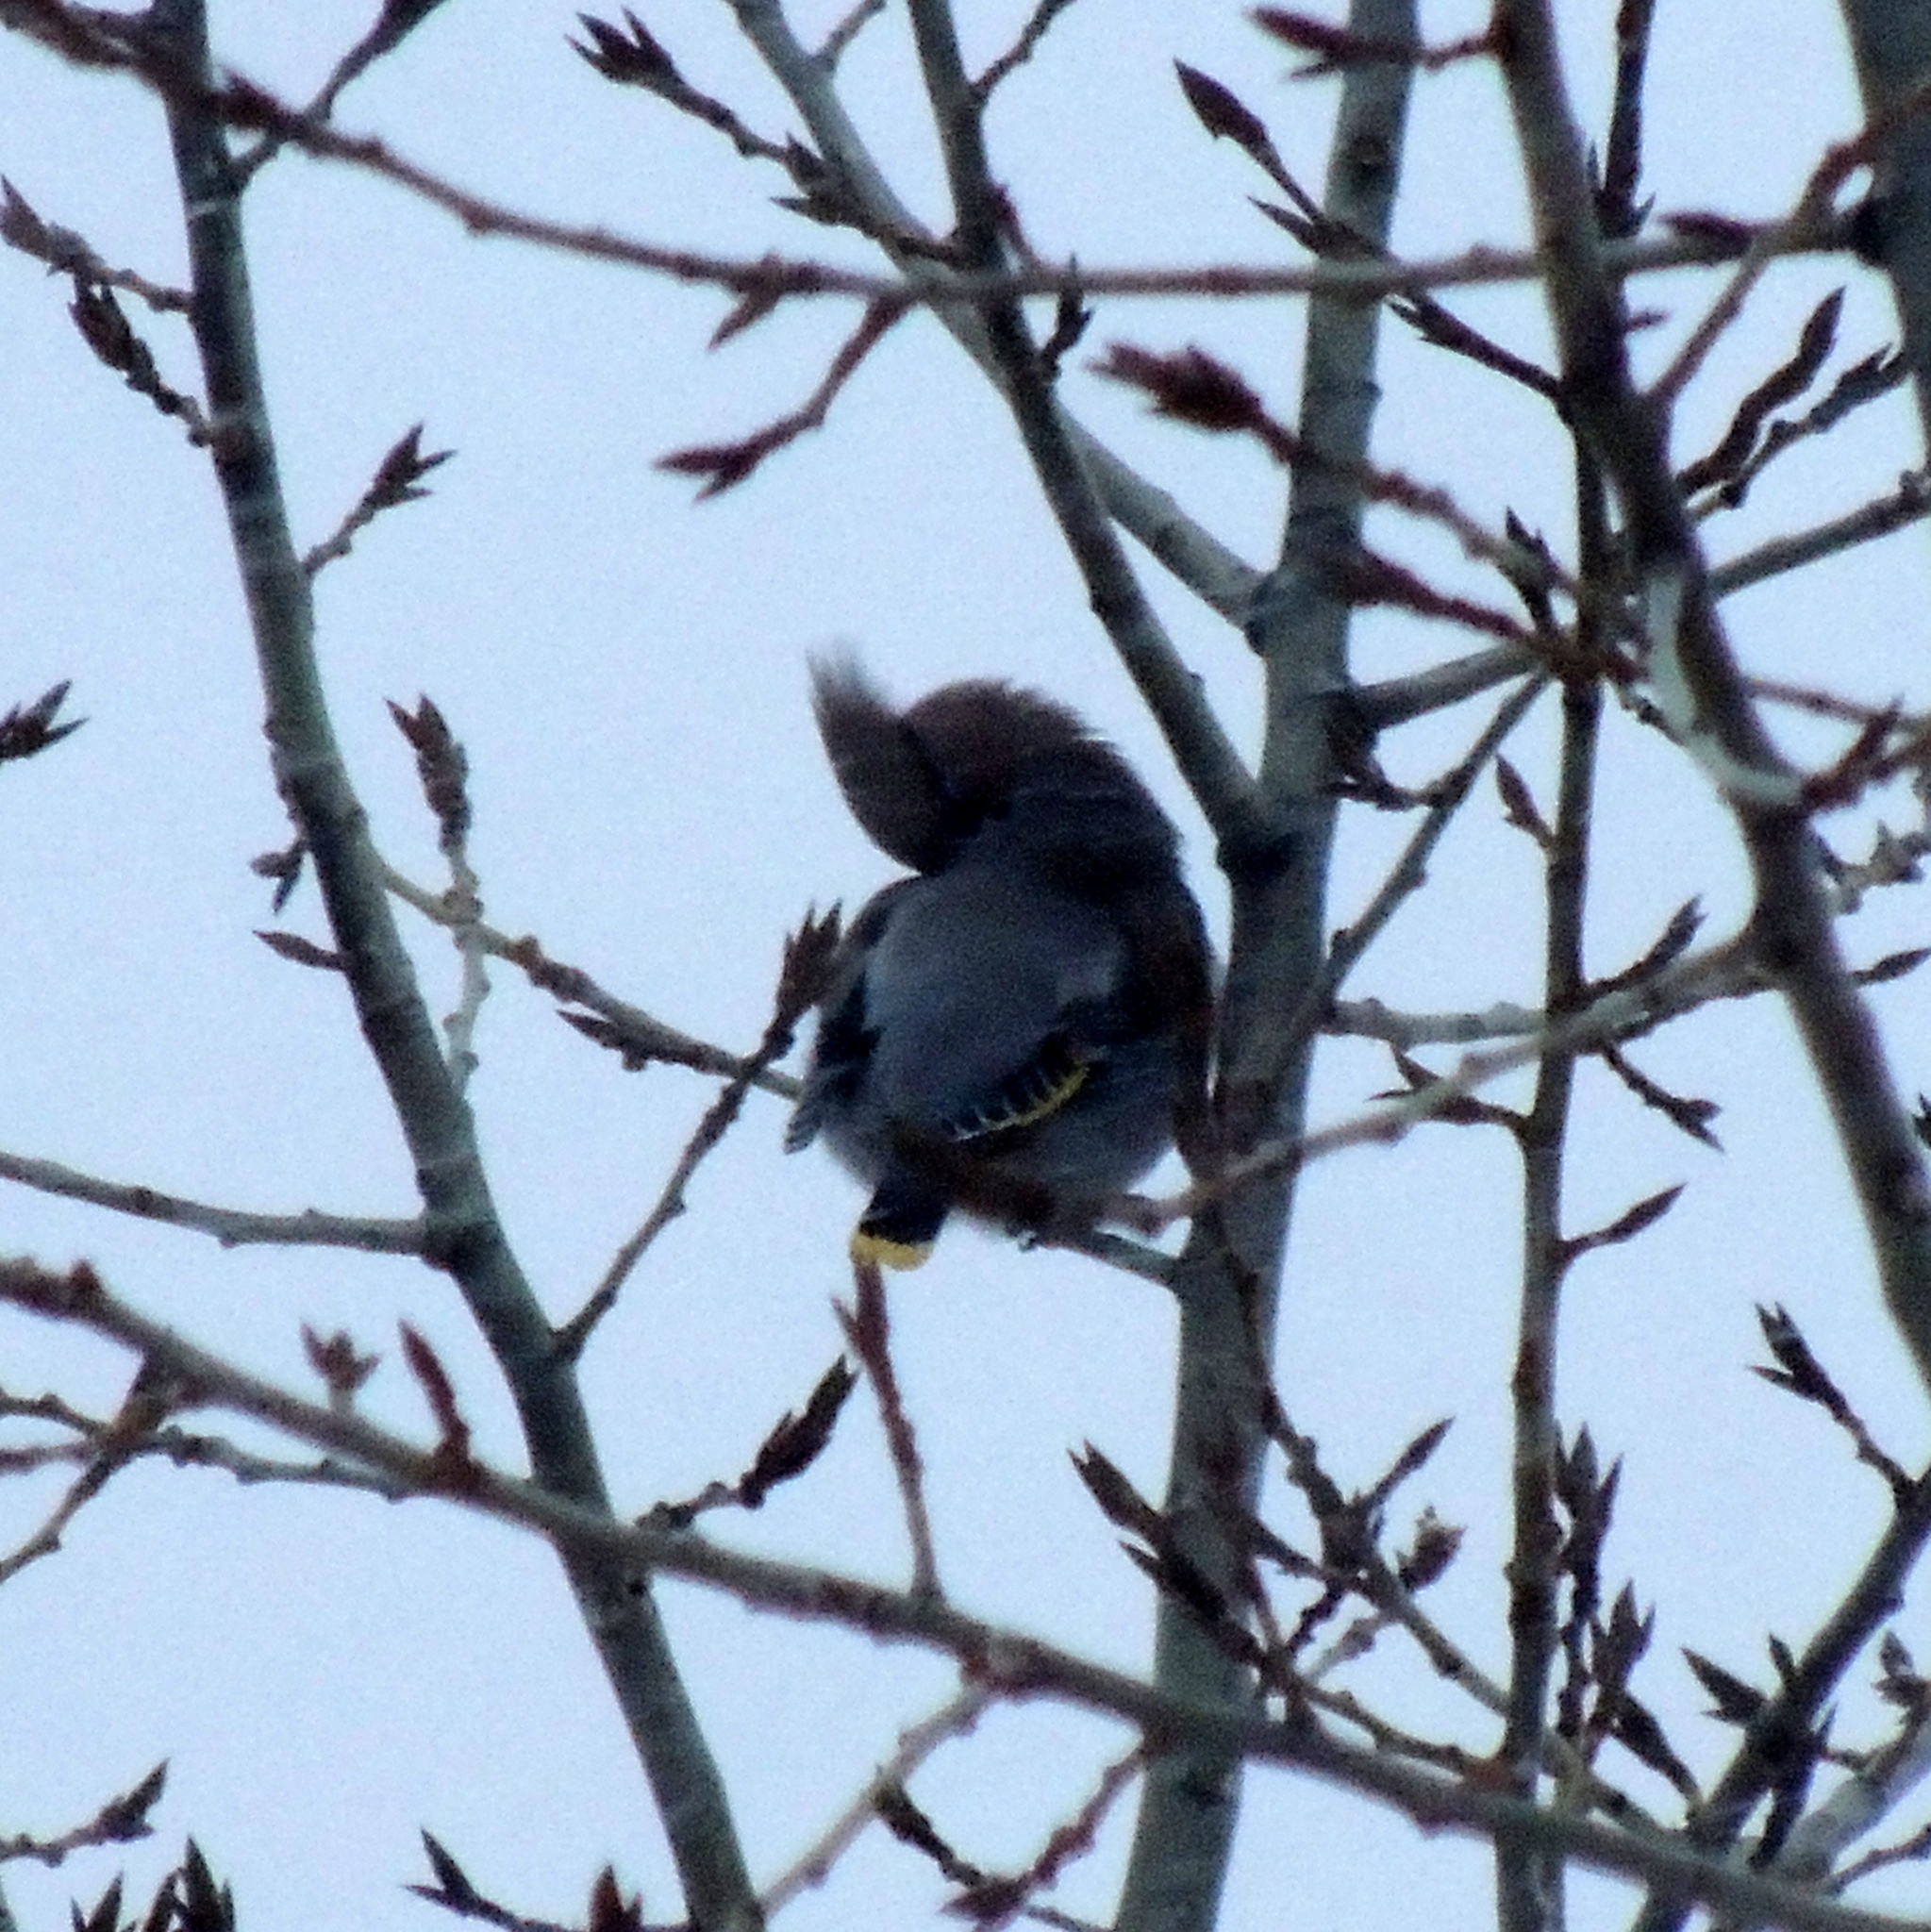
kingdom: Animalia
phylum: Chordata
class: Aves
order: Passeriformes
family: Bombycillidae
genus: Bombycilla
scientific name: Bombycilla garrulus
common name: Bohemian waxwing
